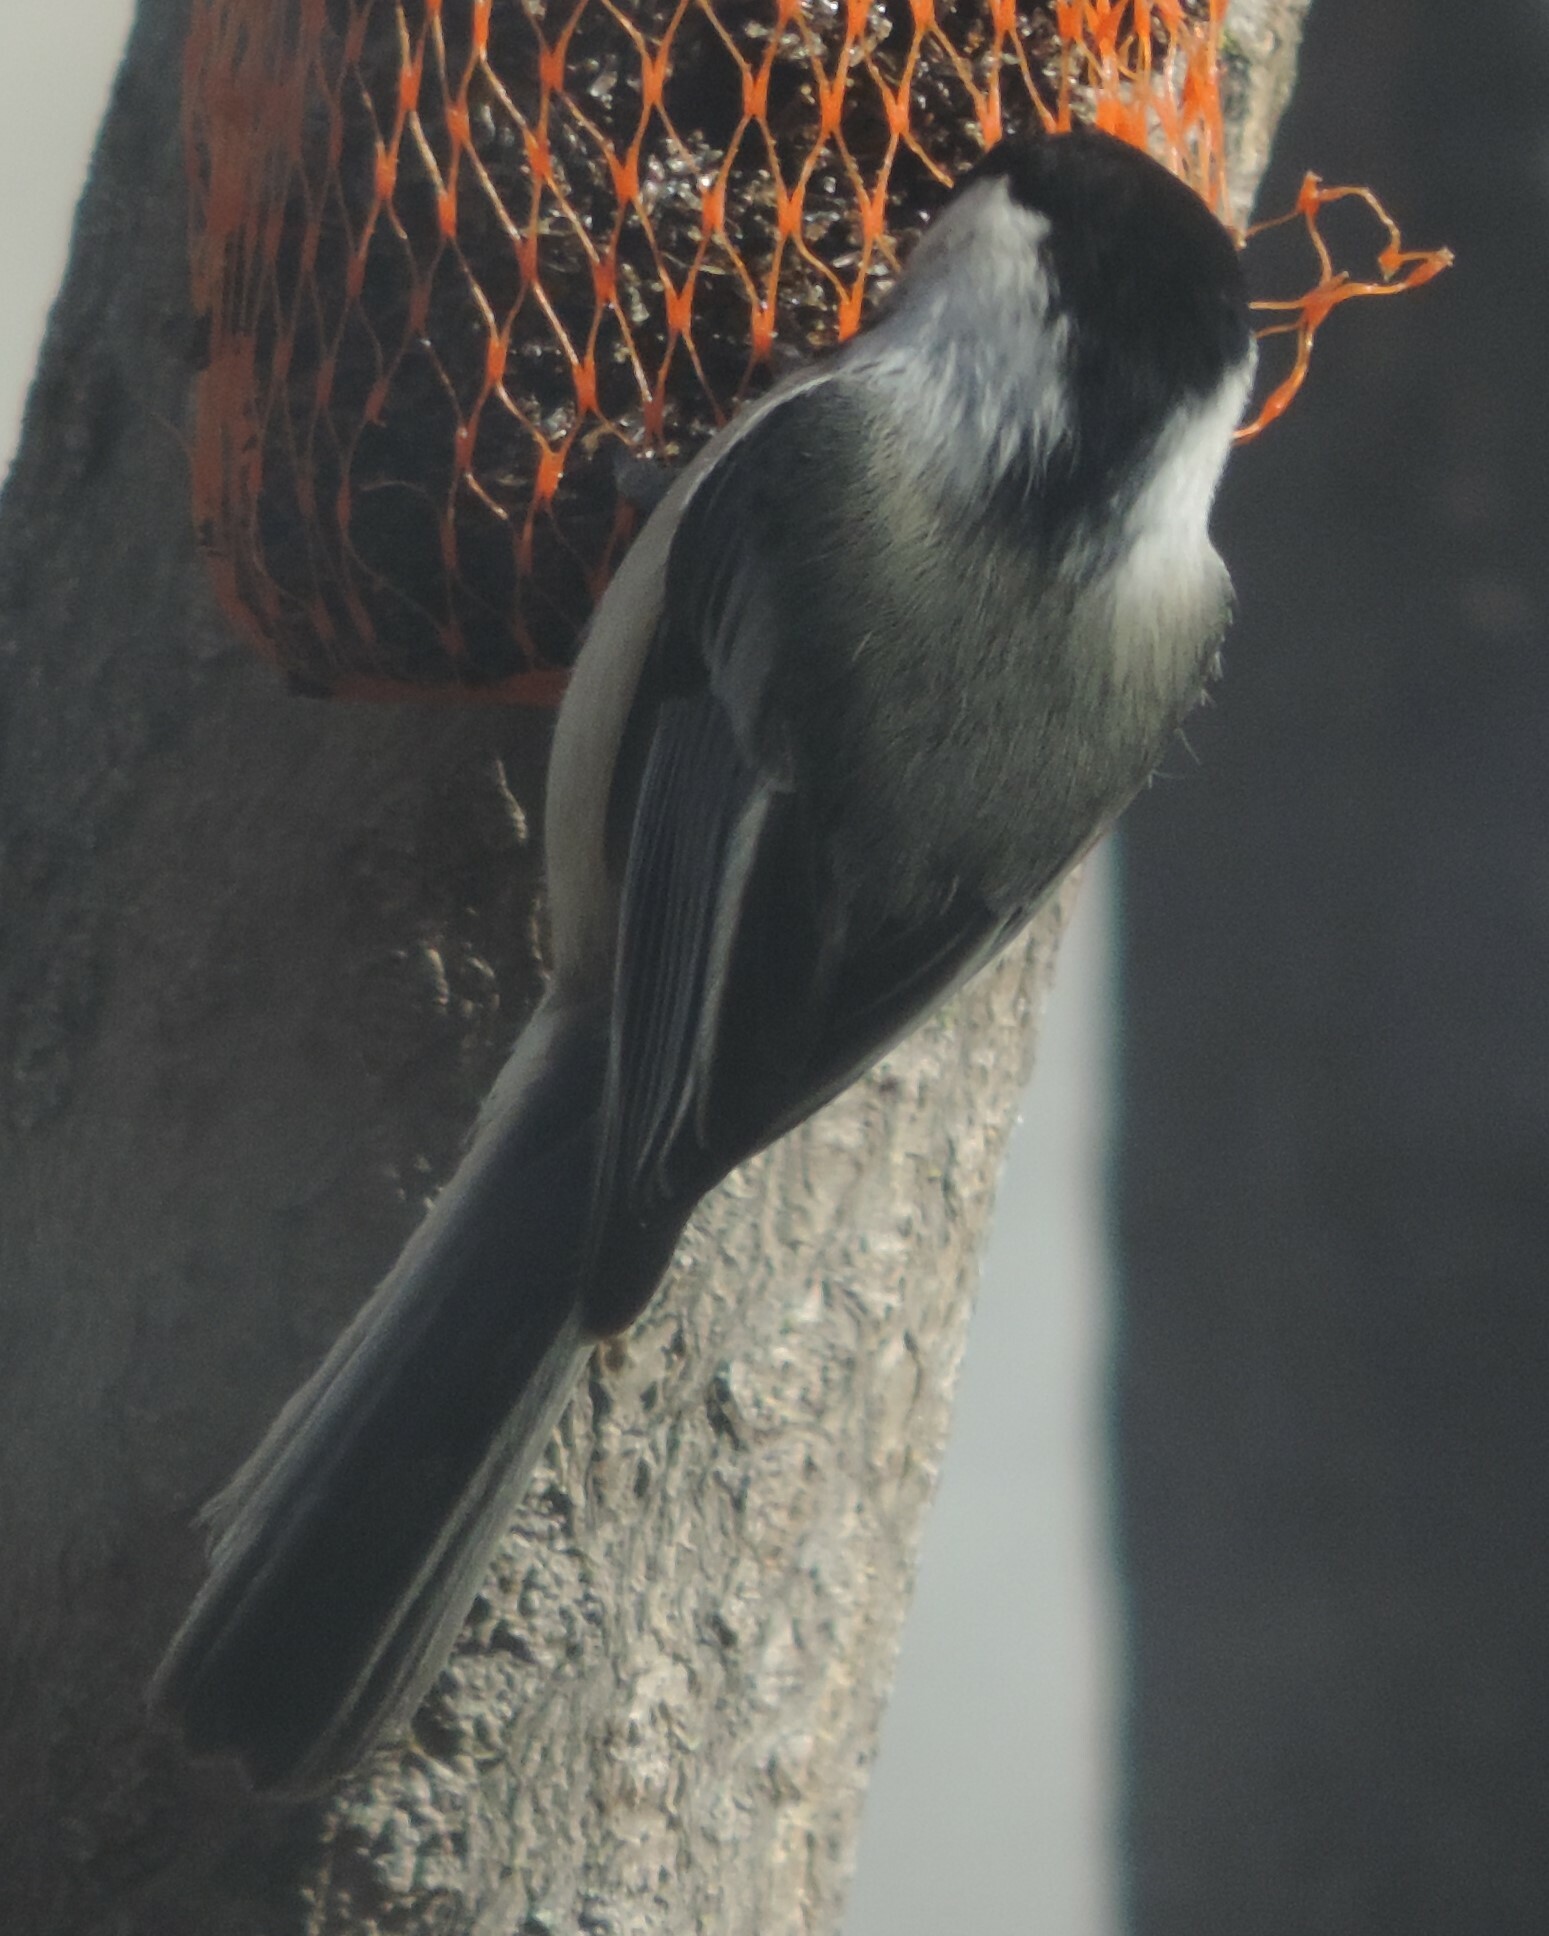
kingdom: Animalia
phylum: Chordata
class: Aves
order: Passeriformes
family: Paridae
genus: Poecile
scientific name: Poecile atricapillus
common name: Black-capped chickadee
